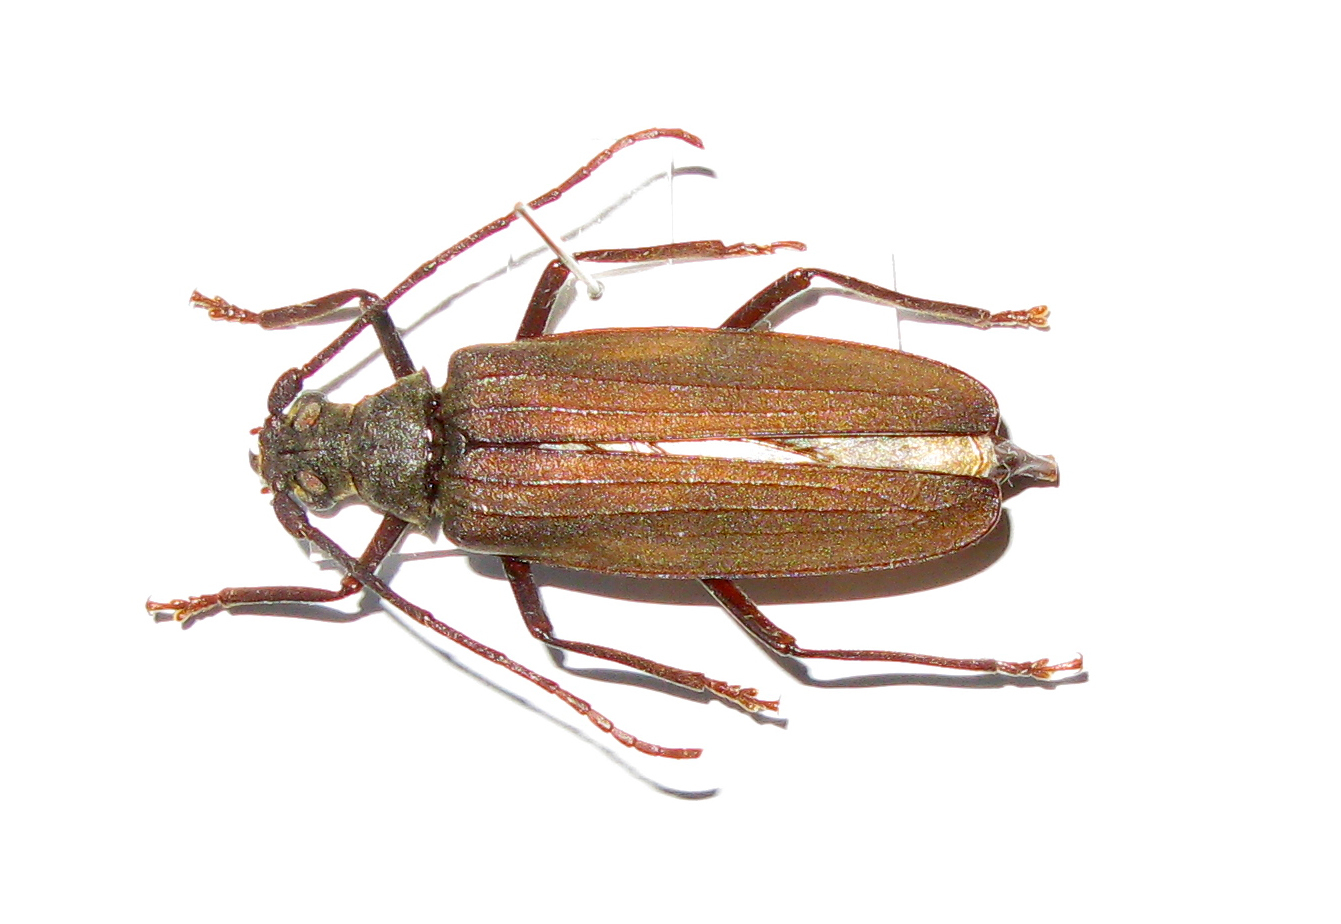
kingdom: Animalia
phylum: Arthropoda
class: Insecta
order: Coleoptera
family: Cerambycidae
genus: Aegosoma
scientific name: Aegosoma scabricorne
